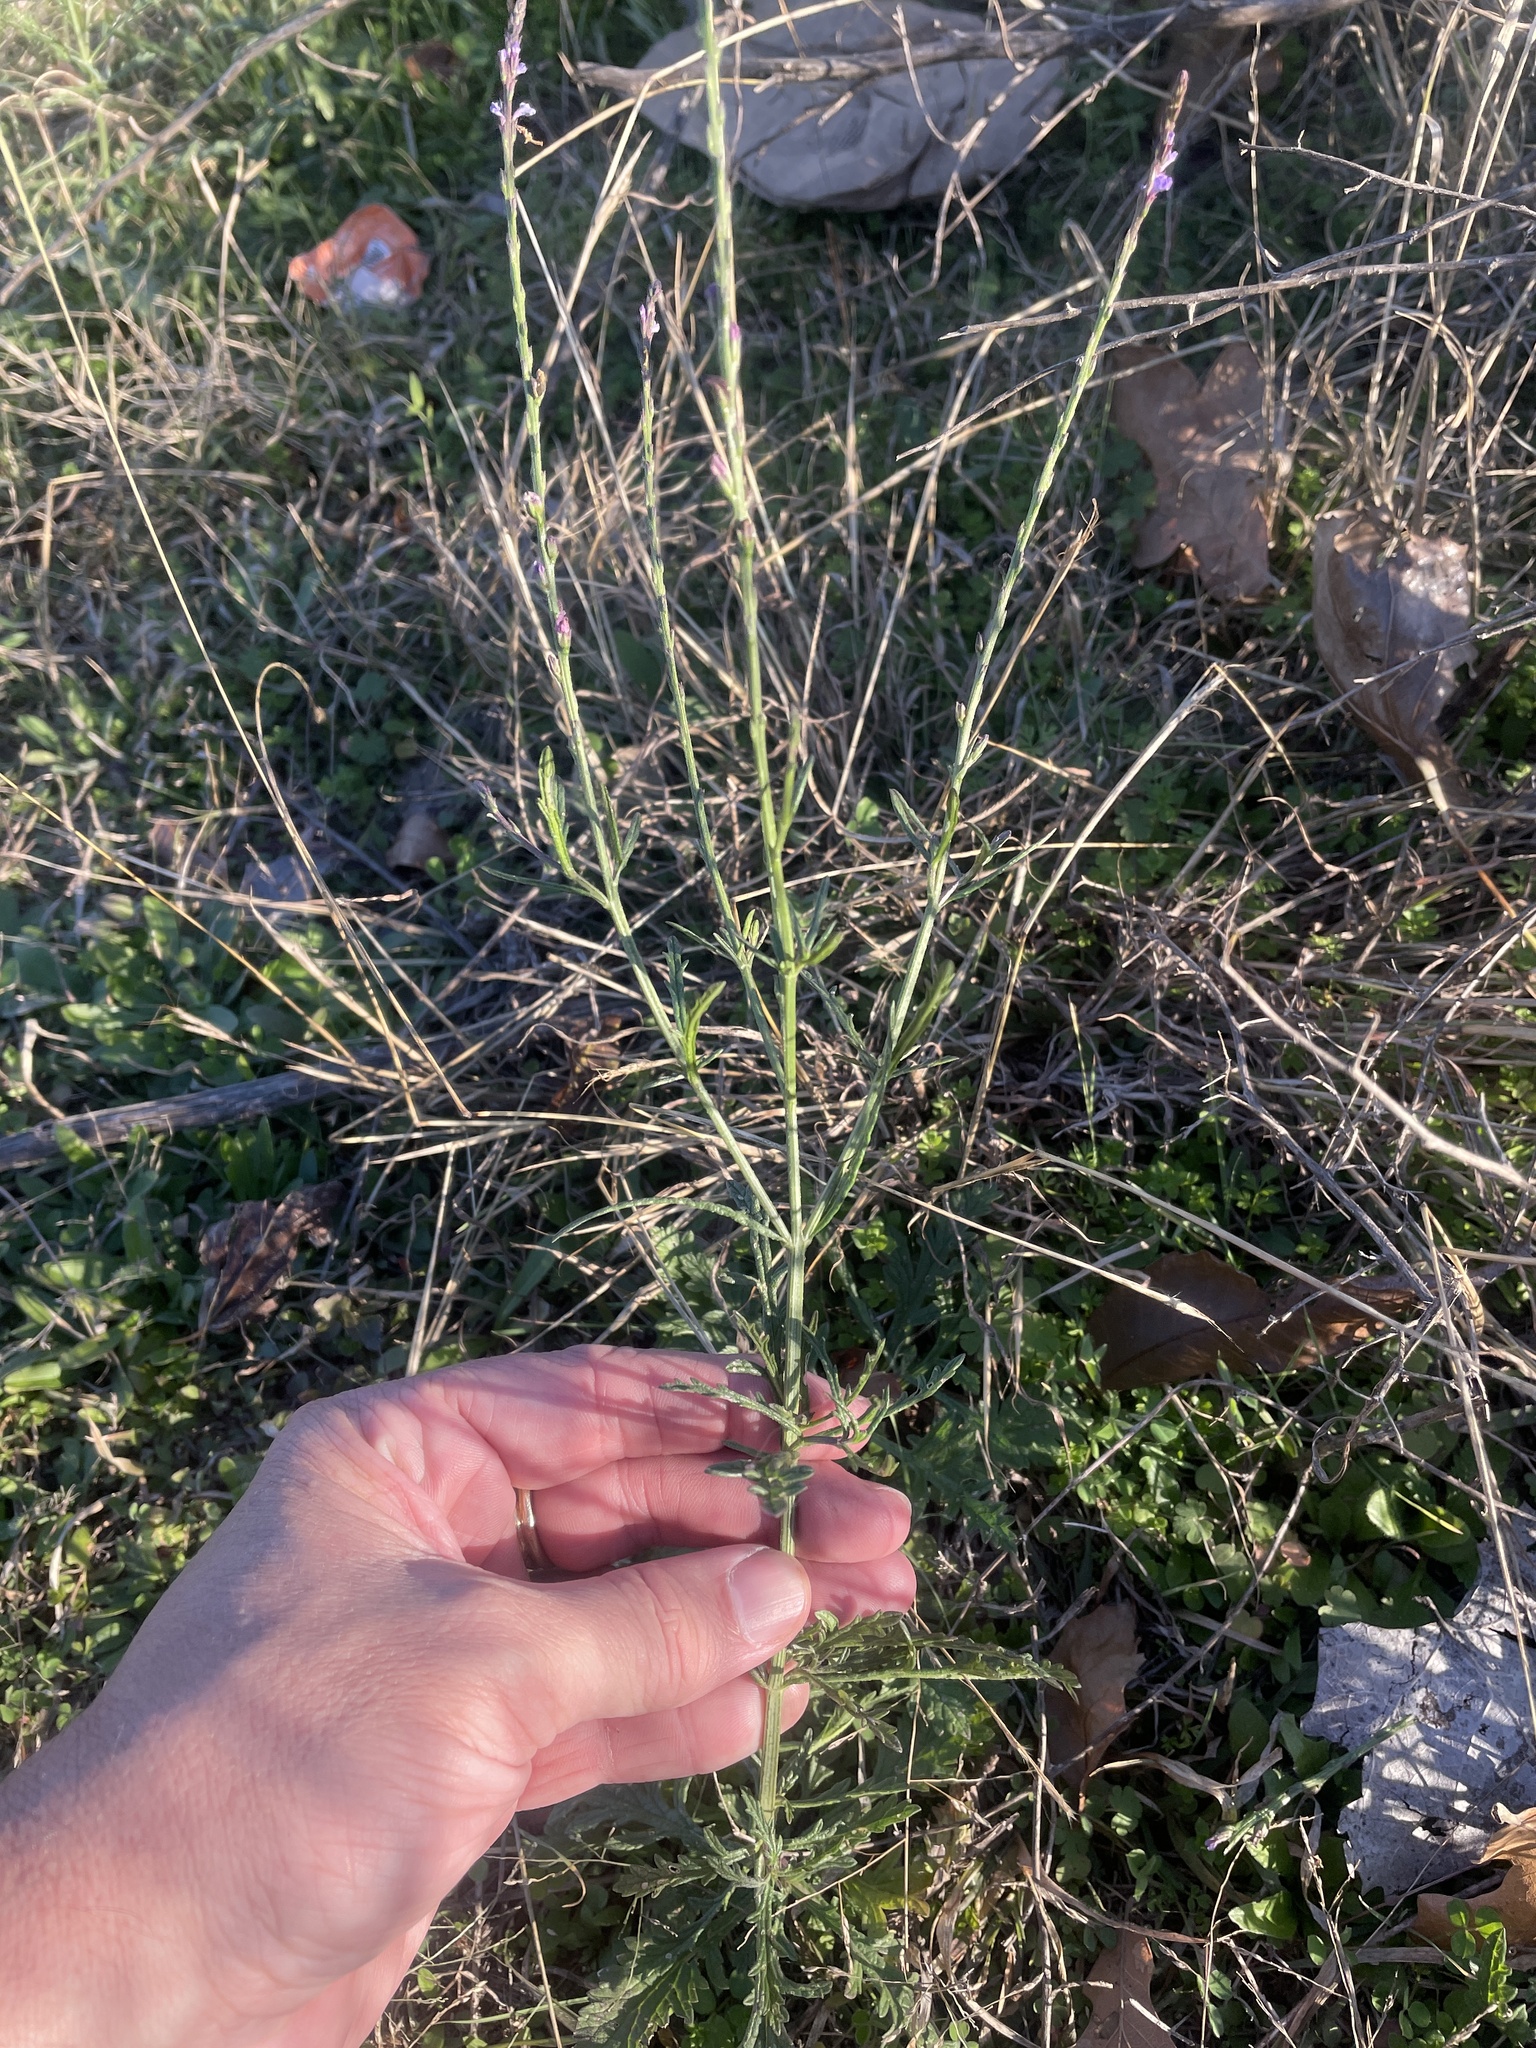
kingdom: Plantae
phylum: Tracheophyta
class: Magnoliopsida
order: Lamiales
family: Verbenaceae
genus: Verbena
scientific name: Verbena halei
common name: Texas vervain
